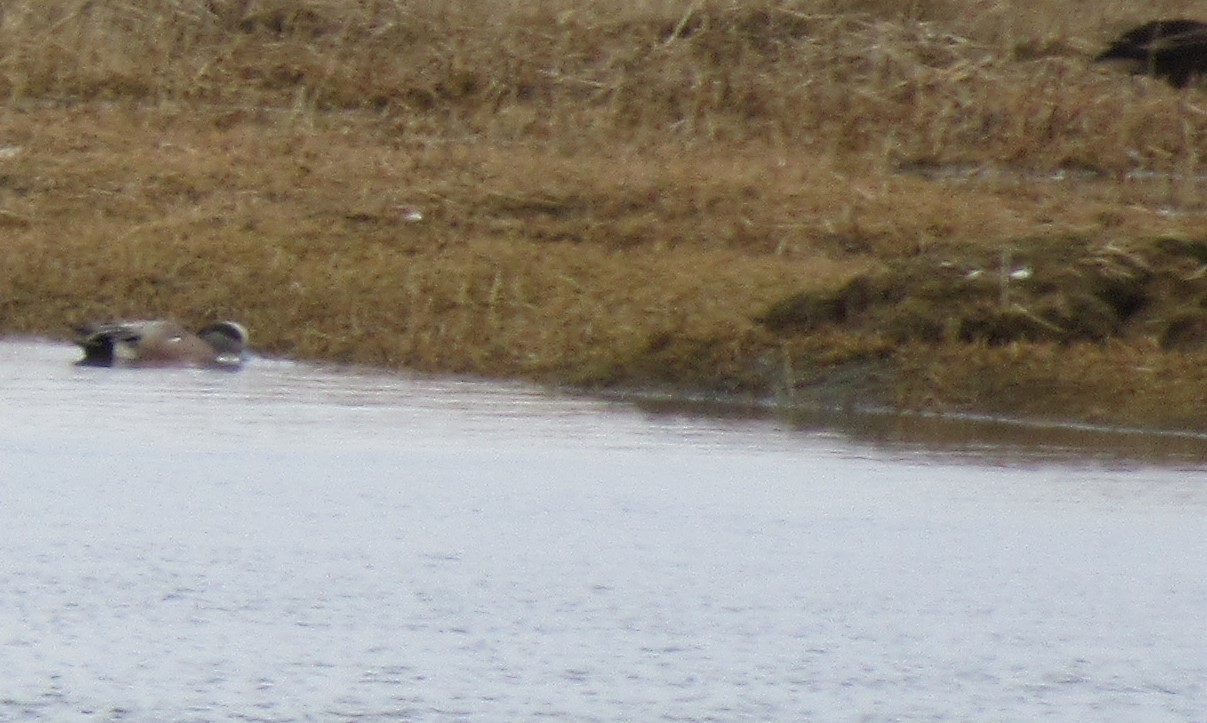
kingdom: Animalia
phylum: Chordata
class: Aves
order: Anseriformes
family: Anatidae
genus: Mareca
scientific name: Mareca americana
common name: American wigeon
